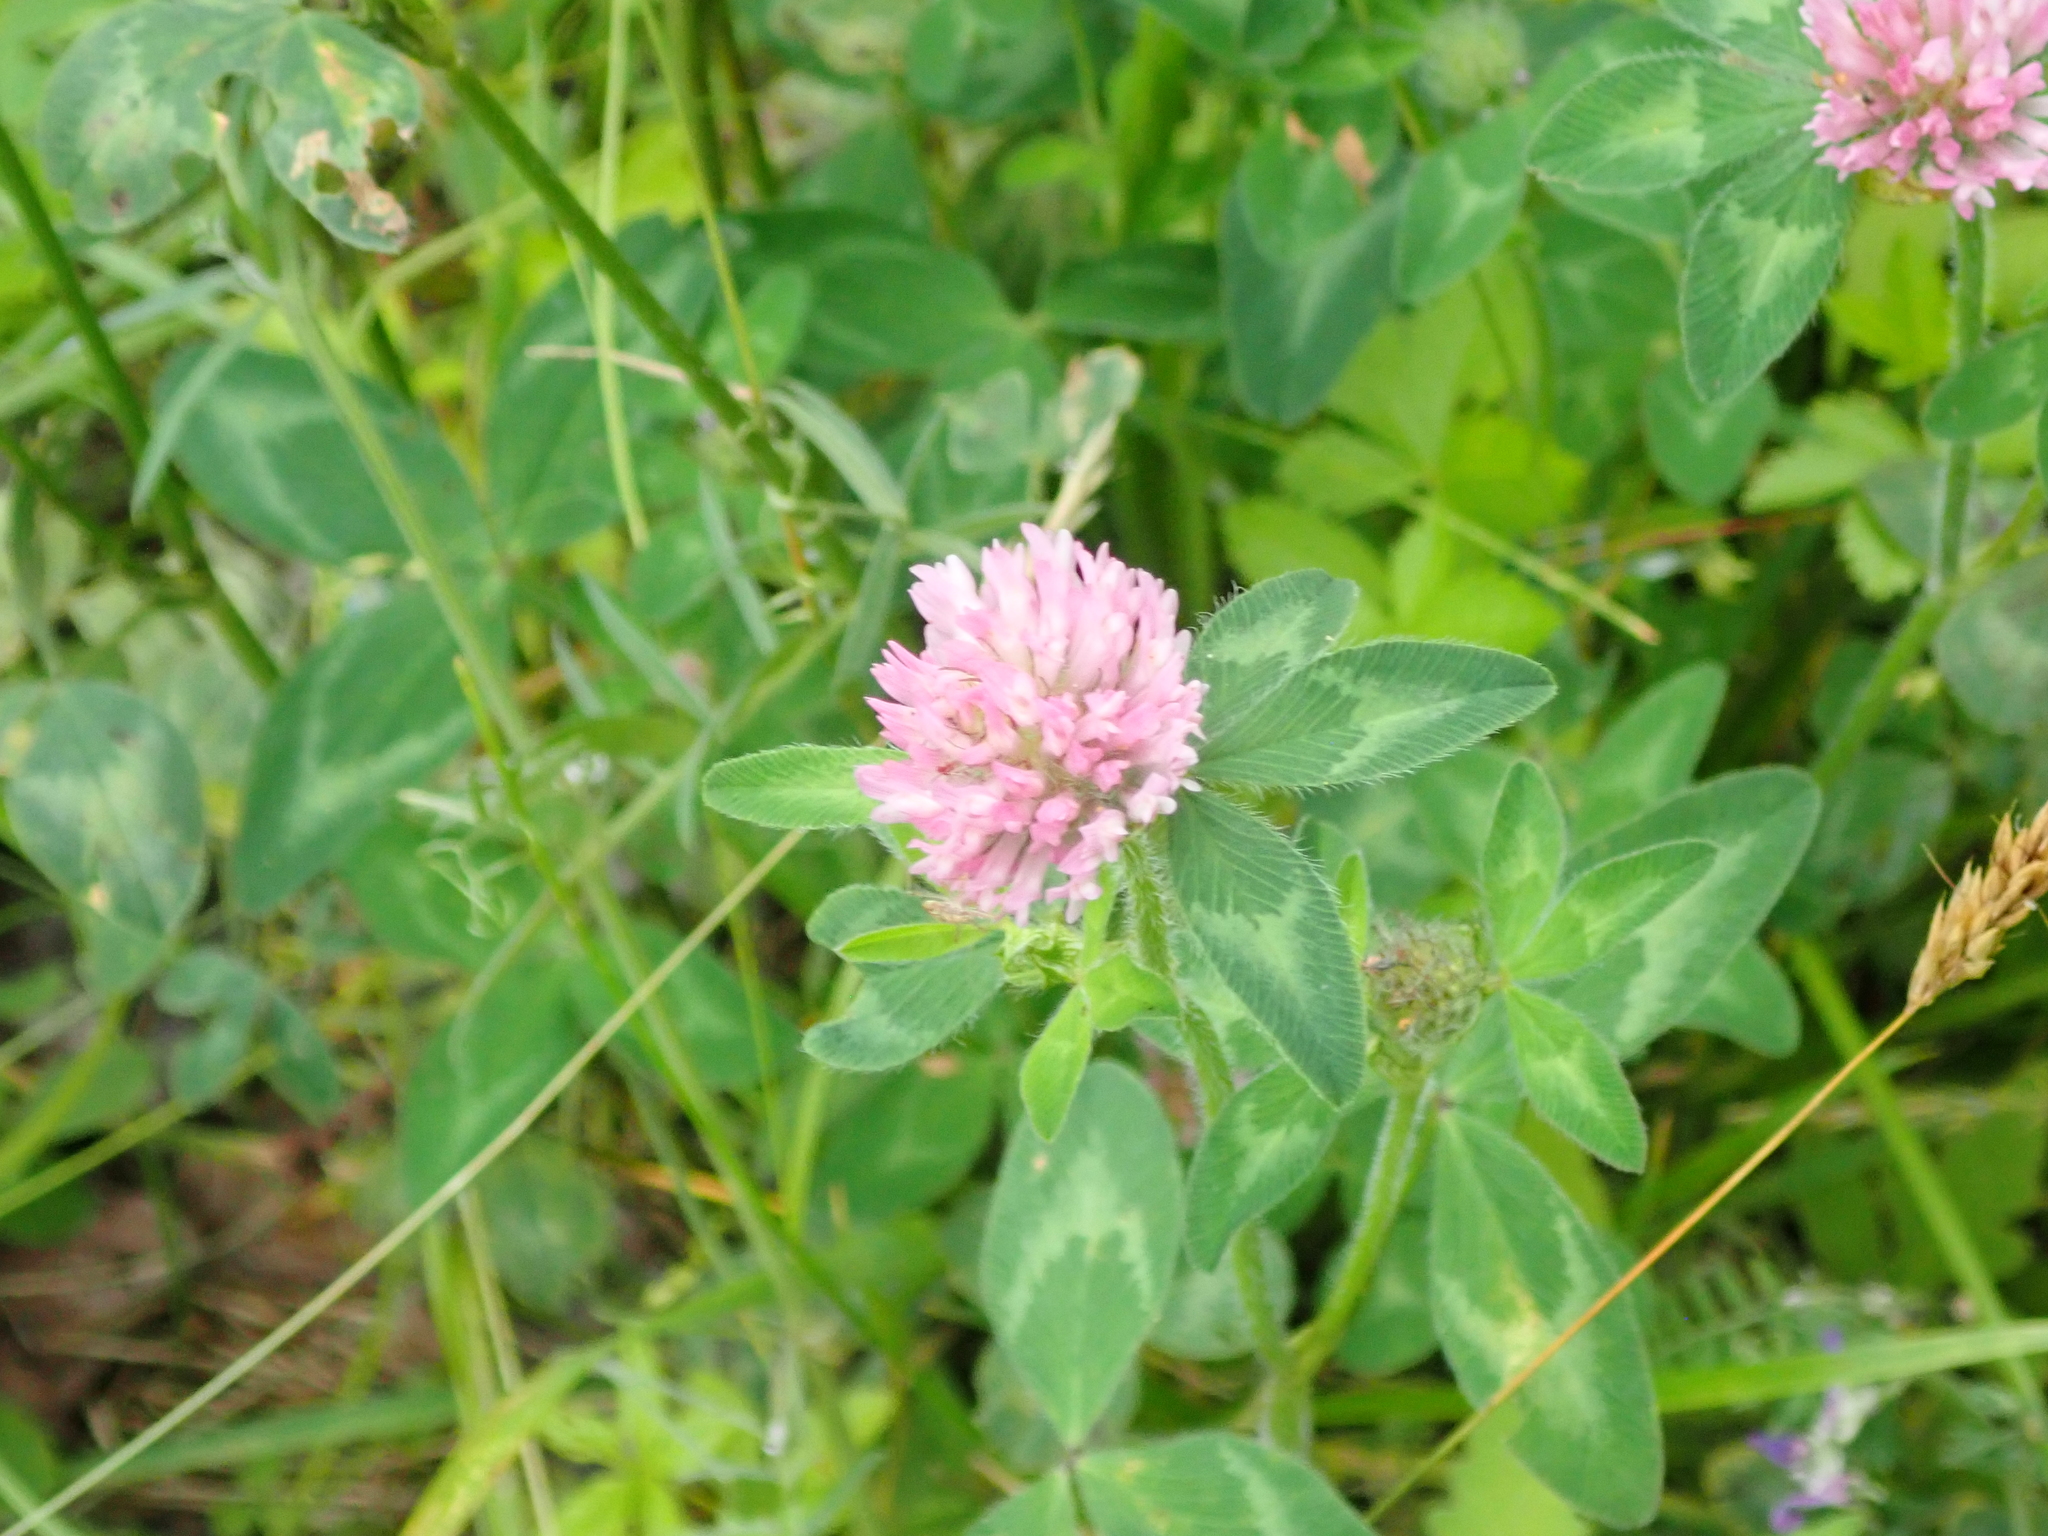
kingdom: Plantae
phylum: Tracheophyta
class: Magnoliopsida
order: Fabales
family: Fabaceae
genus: Trifolium
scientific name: Trifolium pratense
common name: Red clover
